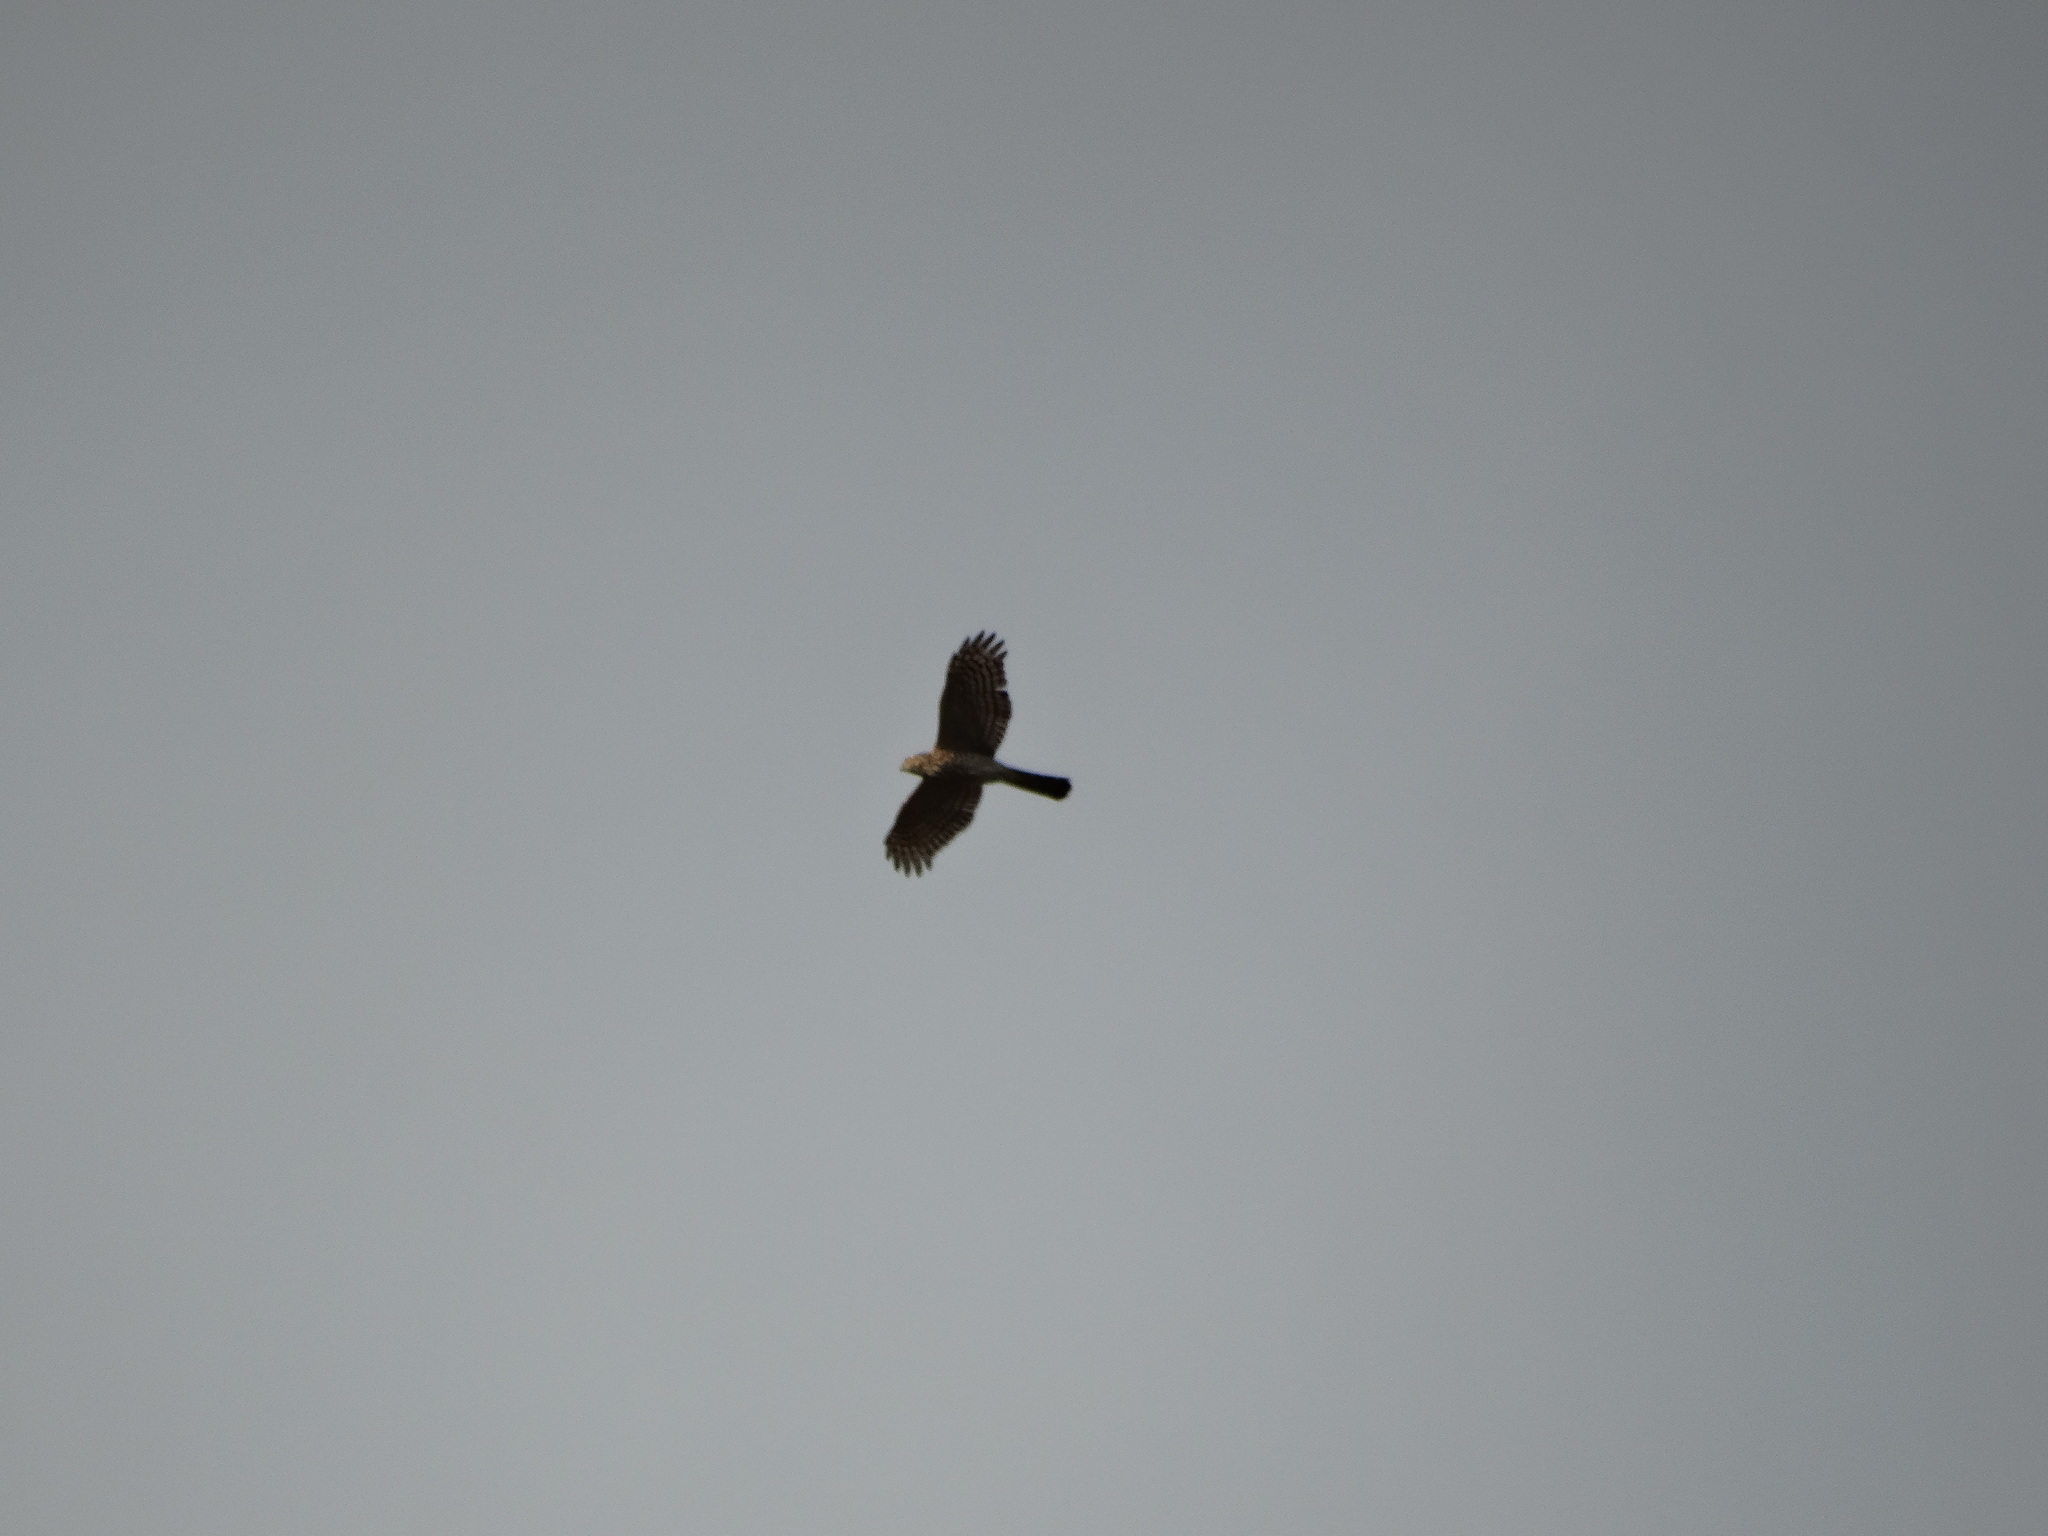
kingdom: Animalia
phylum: Chordata
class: Aves
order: Accipitriformes
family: Accipitridae
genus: Accipiter
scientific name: Accipiter cooperii
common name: Cooper's hawk
